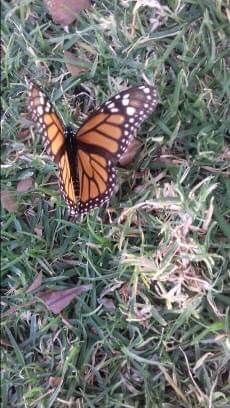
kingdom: Animalia
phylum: Arthropoda
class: Insecta
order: Lepidoptera
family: Nymphalidae
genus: Danaus
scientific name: Danaus plexippus
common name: Monarch
